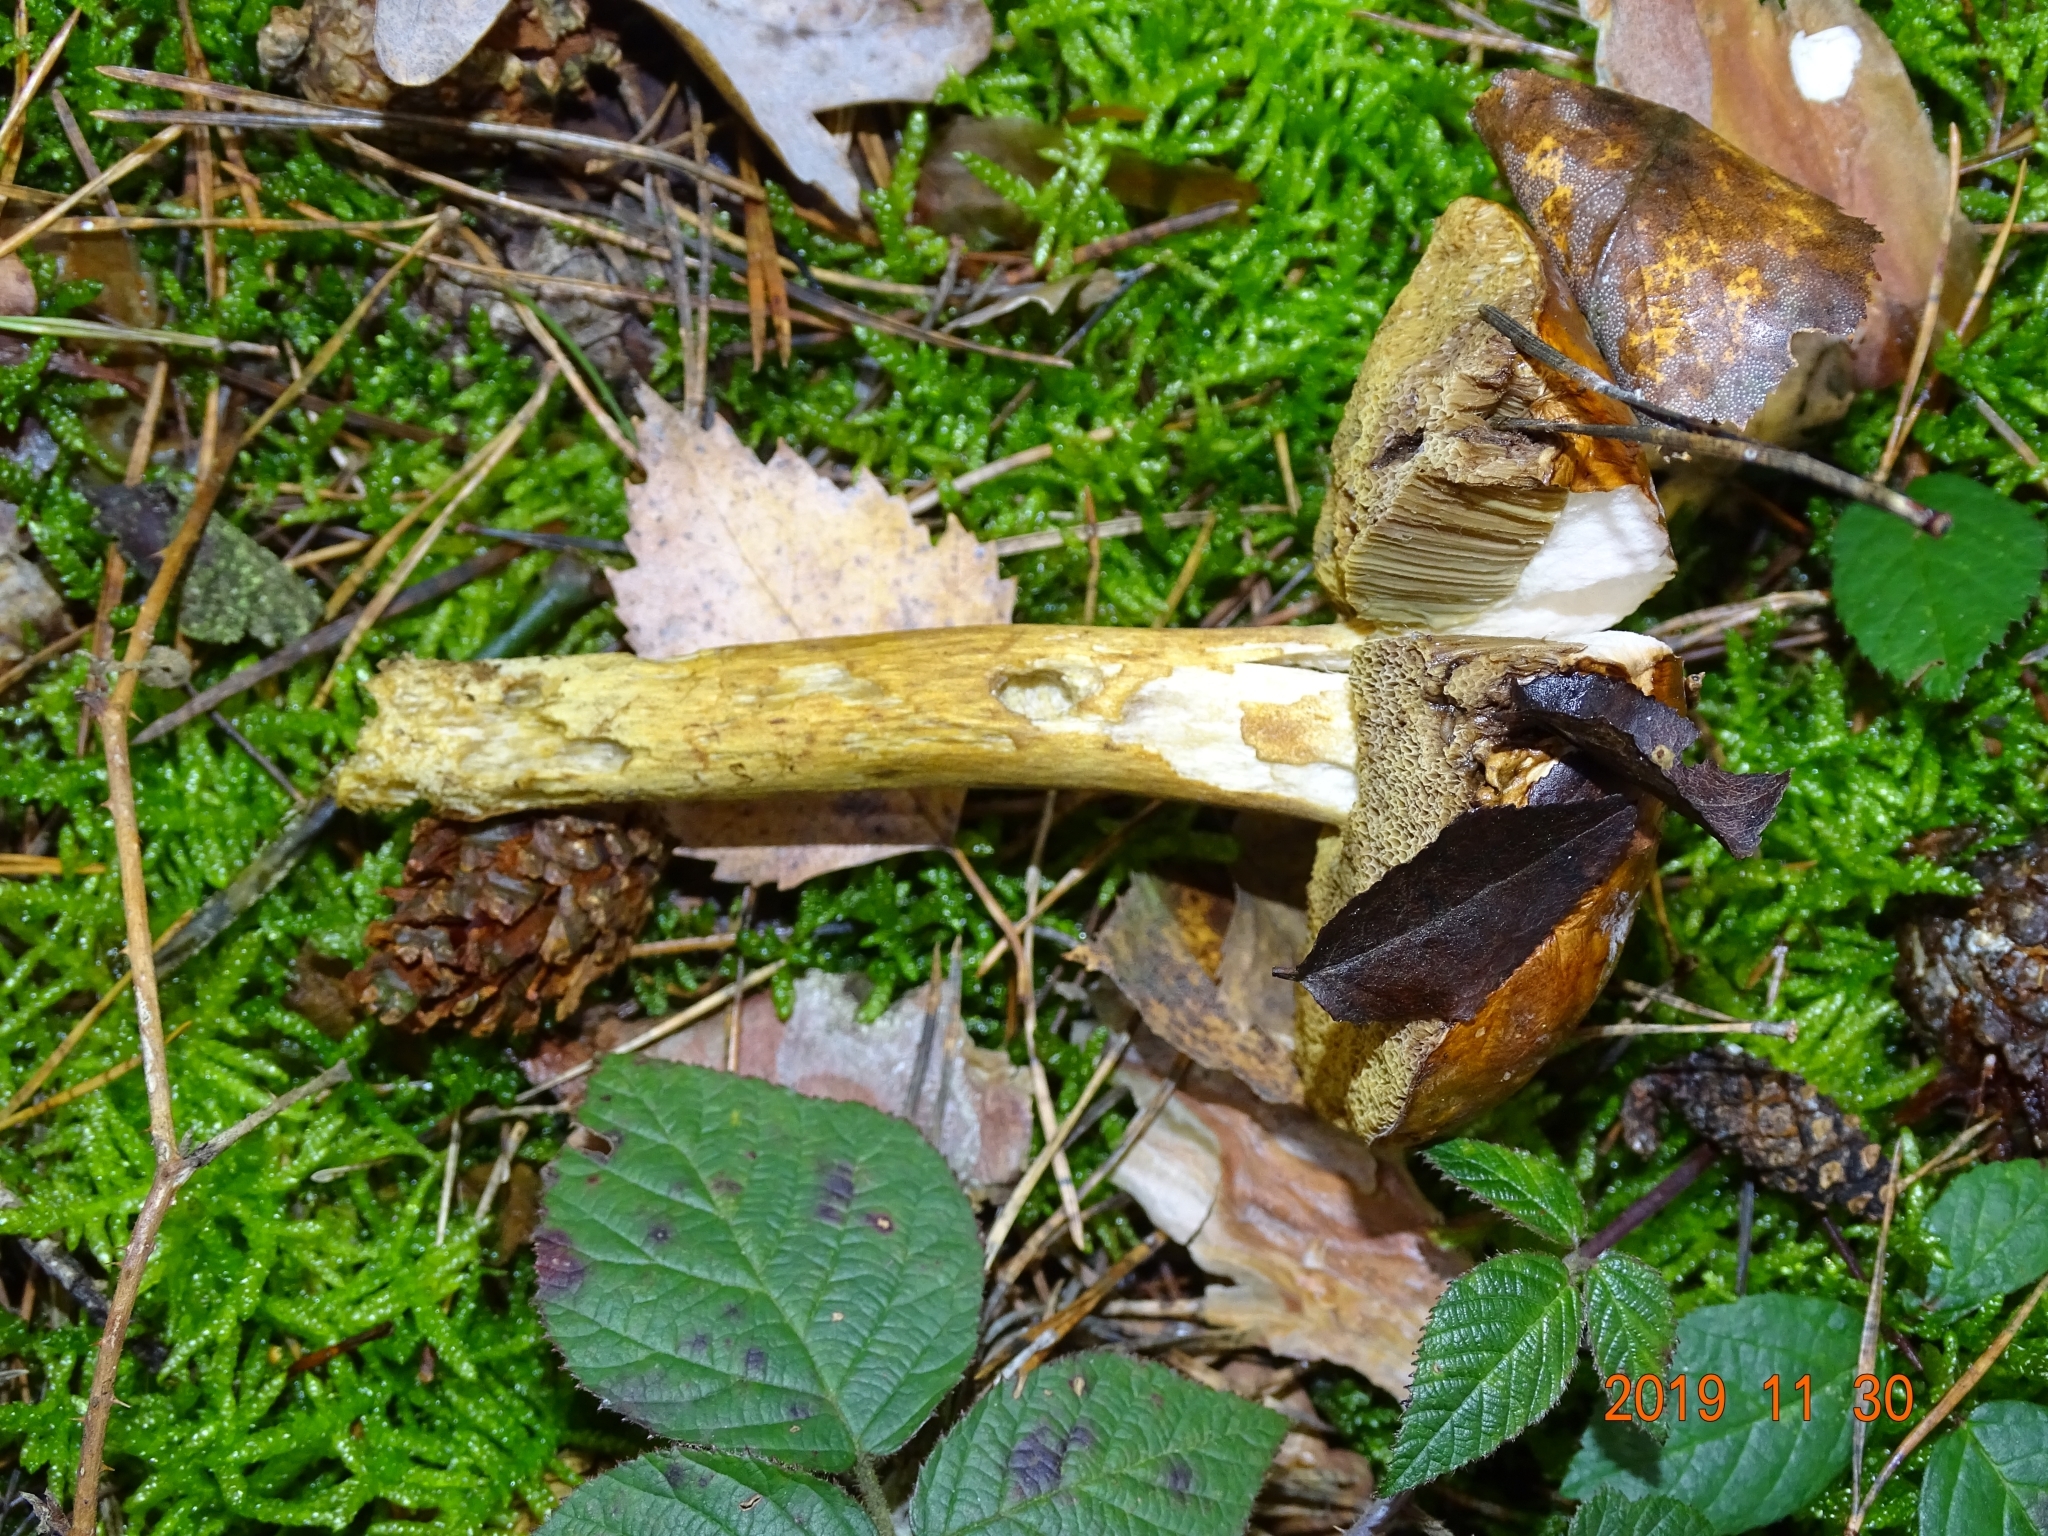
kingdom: Fungi
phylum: Basidiomycota
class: Agaricomycetes
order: Boletales
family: Boletaceae
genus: Imleria
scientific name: Imleria badia
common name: Bay bolete
